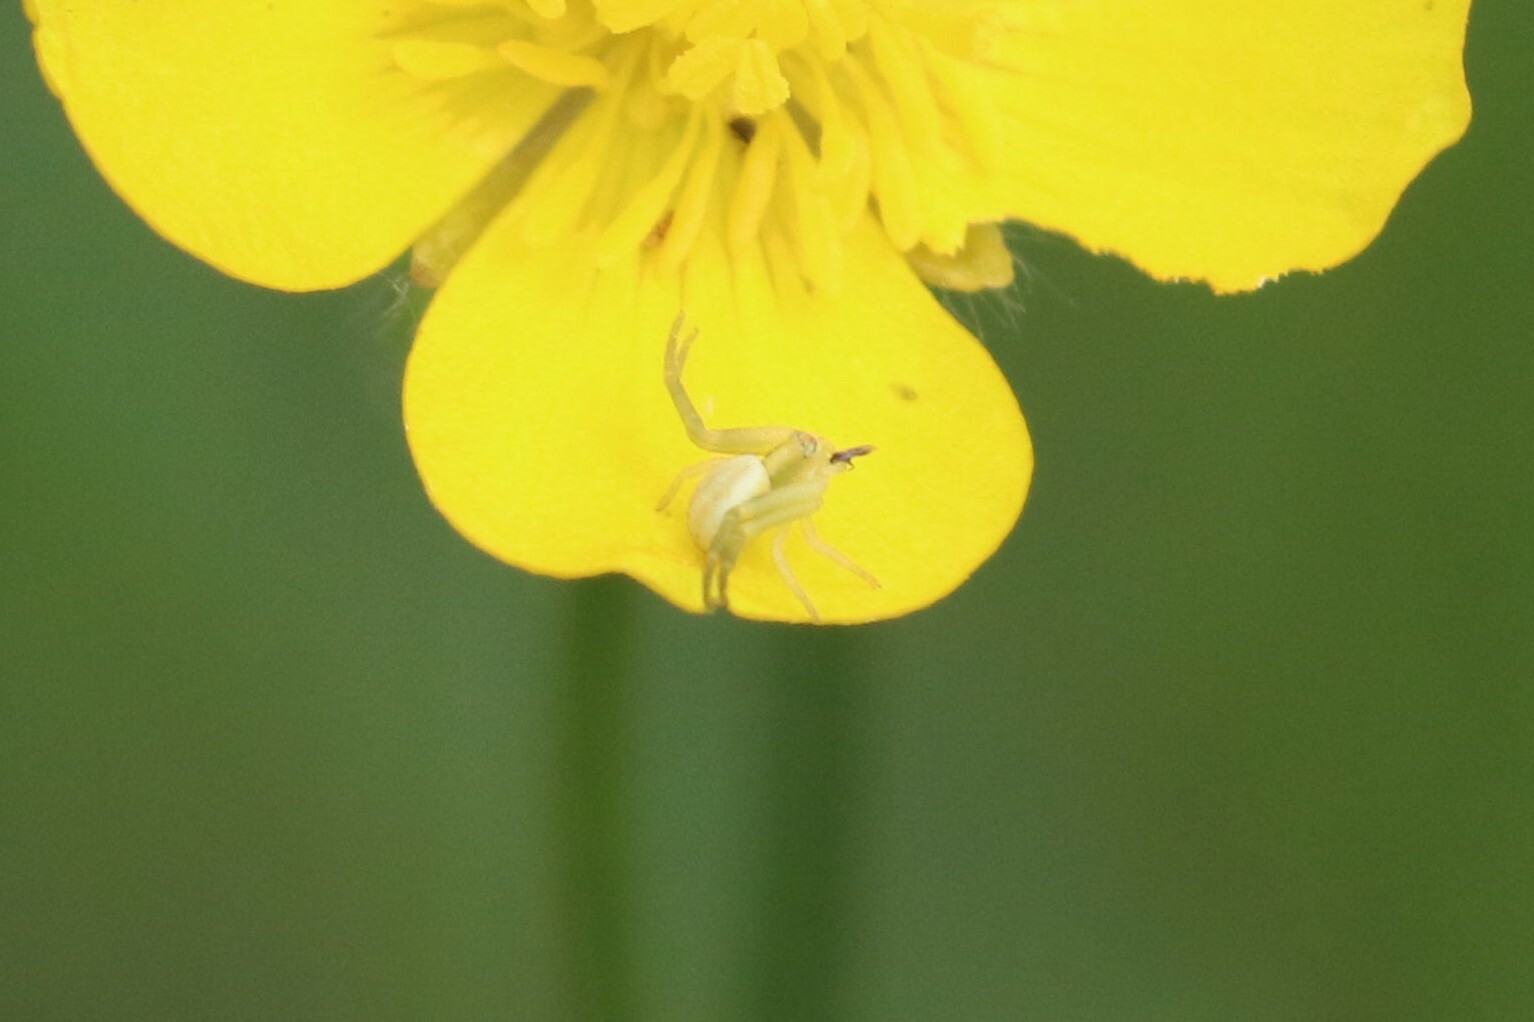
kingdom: Animalia
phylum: Arthropoda
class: Arachnida
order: Araneae
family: Thomisidae
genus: Misumena
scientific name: Misumena vatia
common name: Goldenrod crab spider
